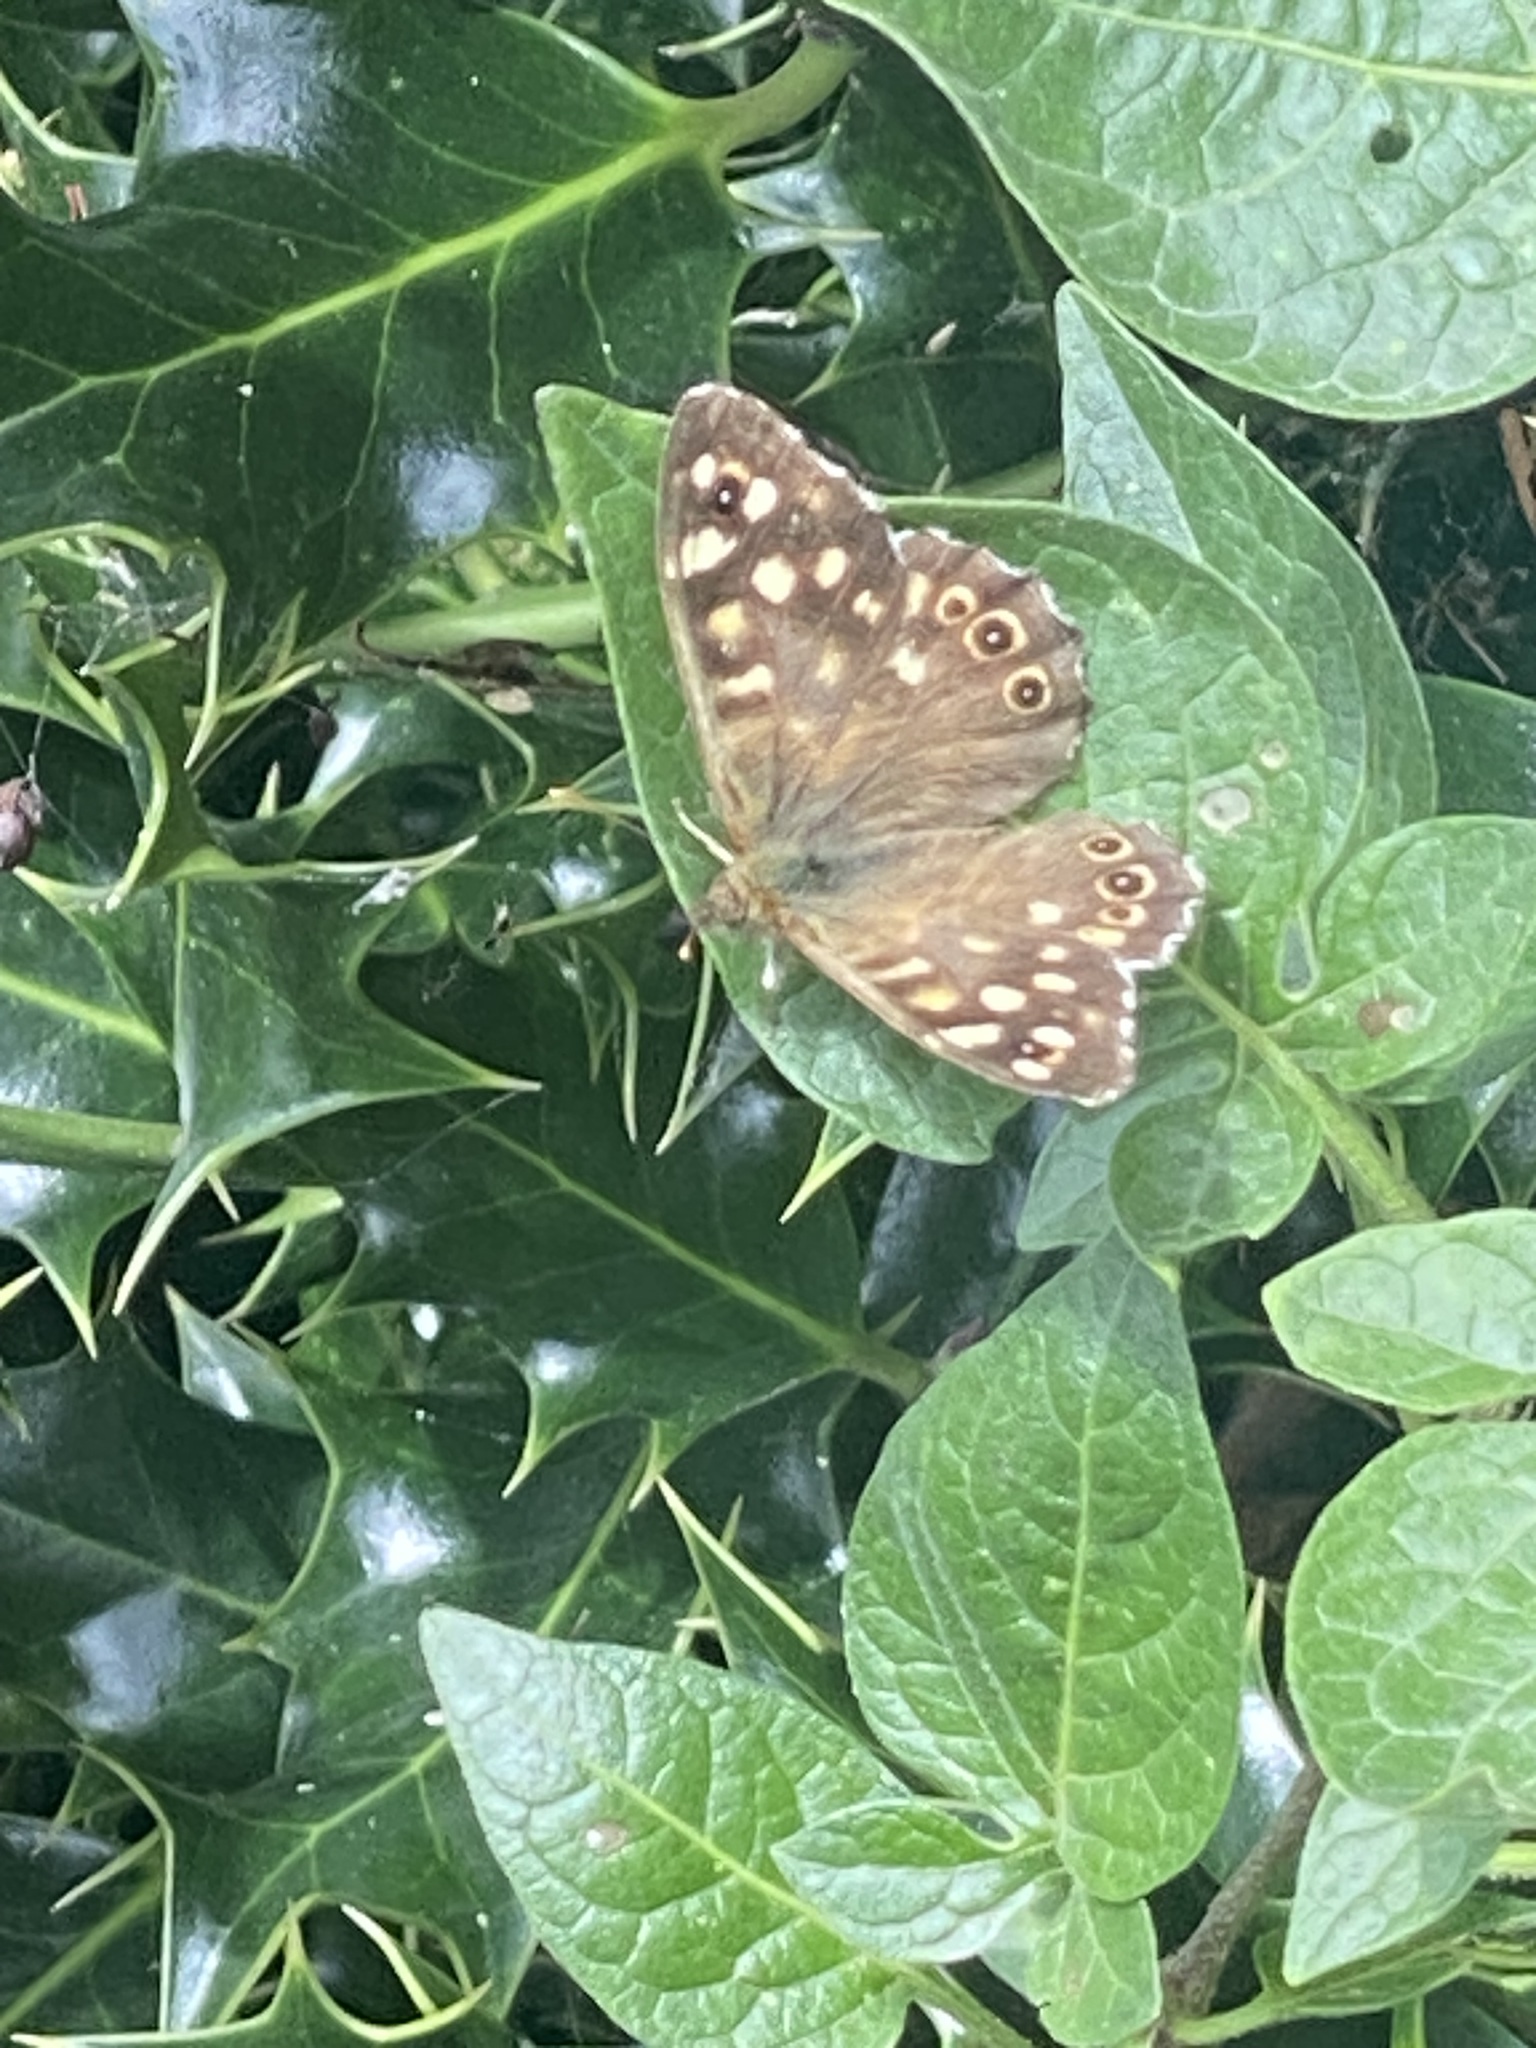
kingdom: Animalia
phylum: Arthropoda
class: Insecta
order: Lepidoptera
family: Nymphalidae
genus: Pararge
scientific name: Pararge aegeria
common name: Speckled wood
